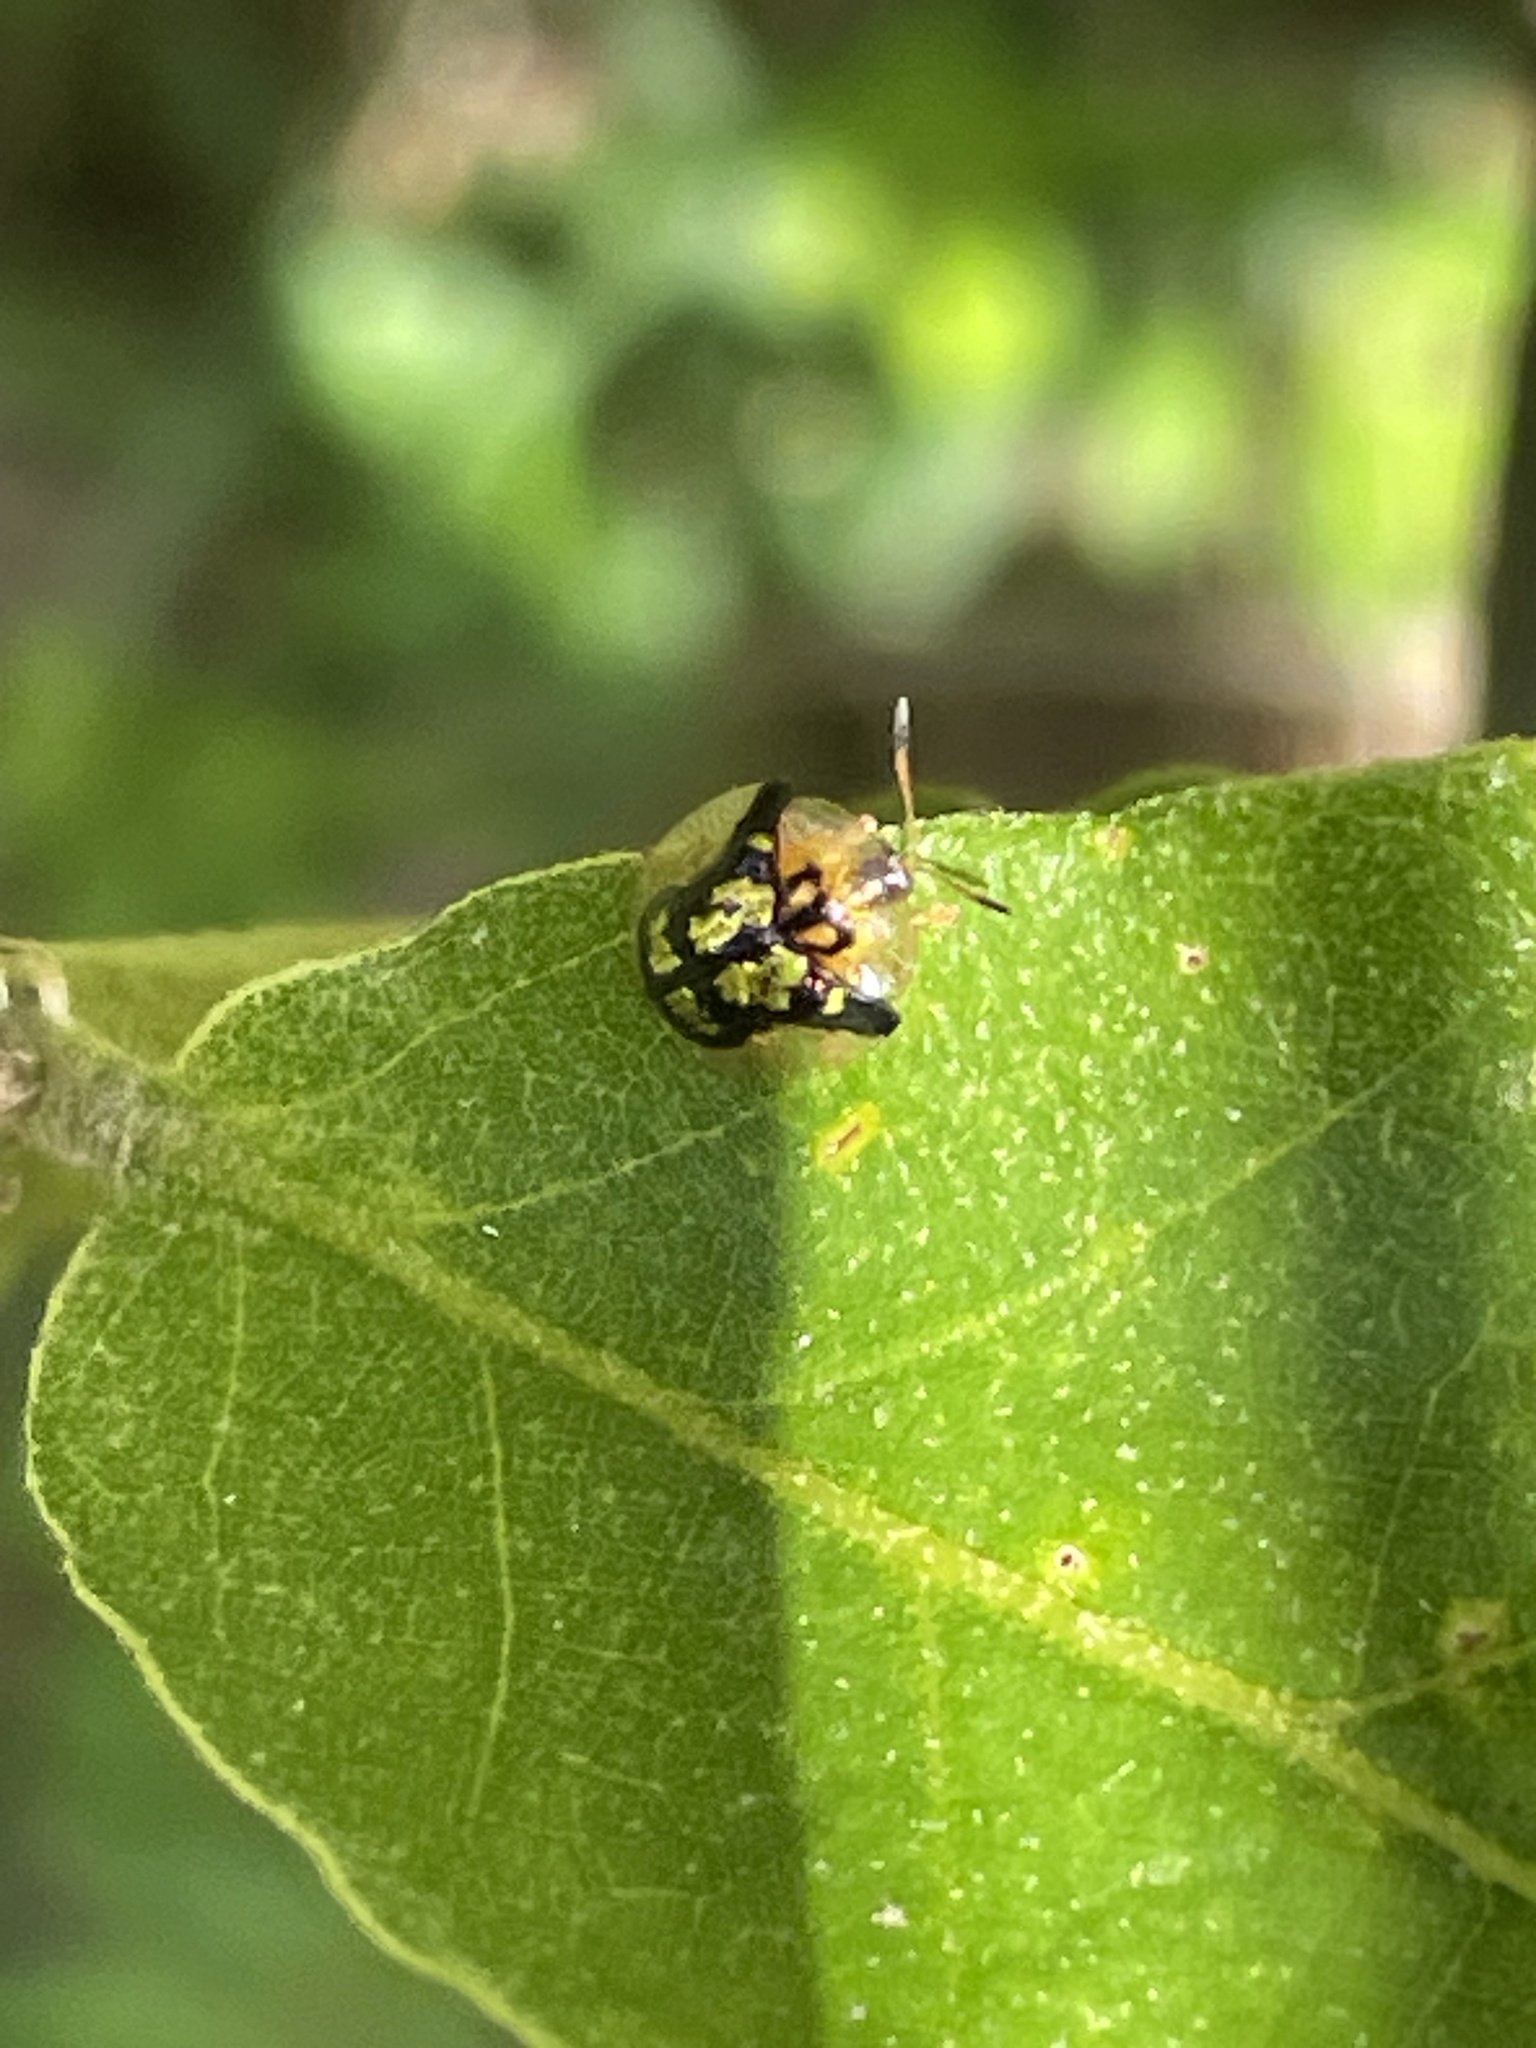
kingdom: Animalia
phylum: Arthropoda
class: Insecta
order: Coleoptera
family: Chrysomelidae
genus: Deloyala
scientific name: Deloyala guttata
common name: Mottled tortoise beetle
